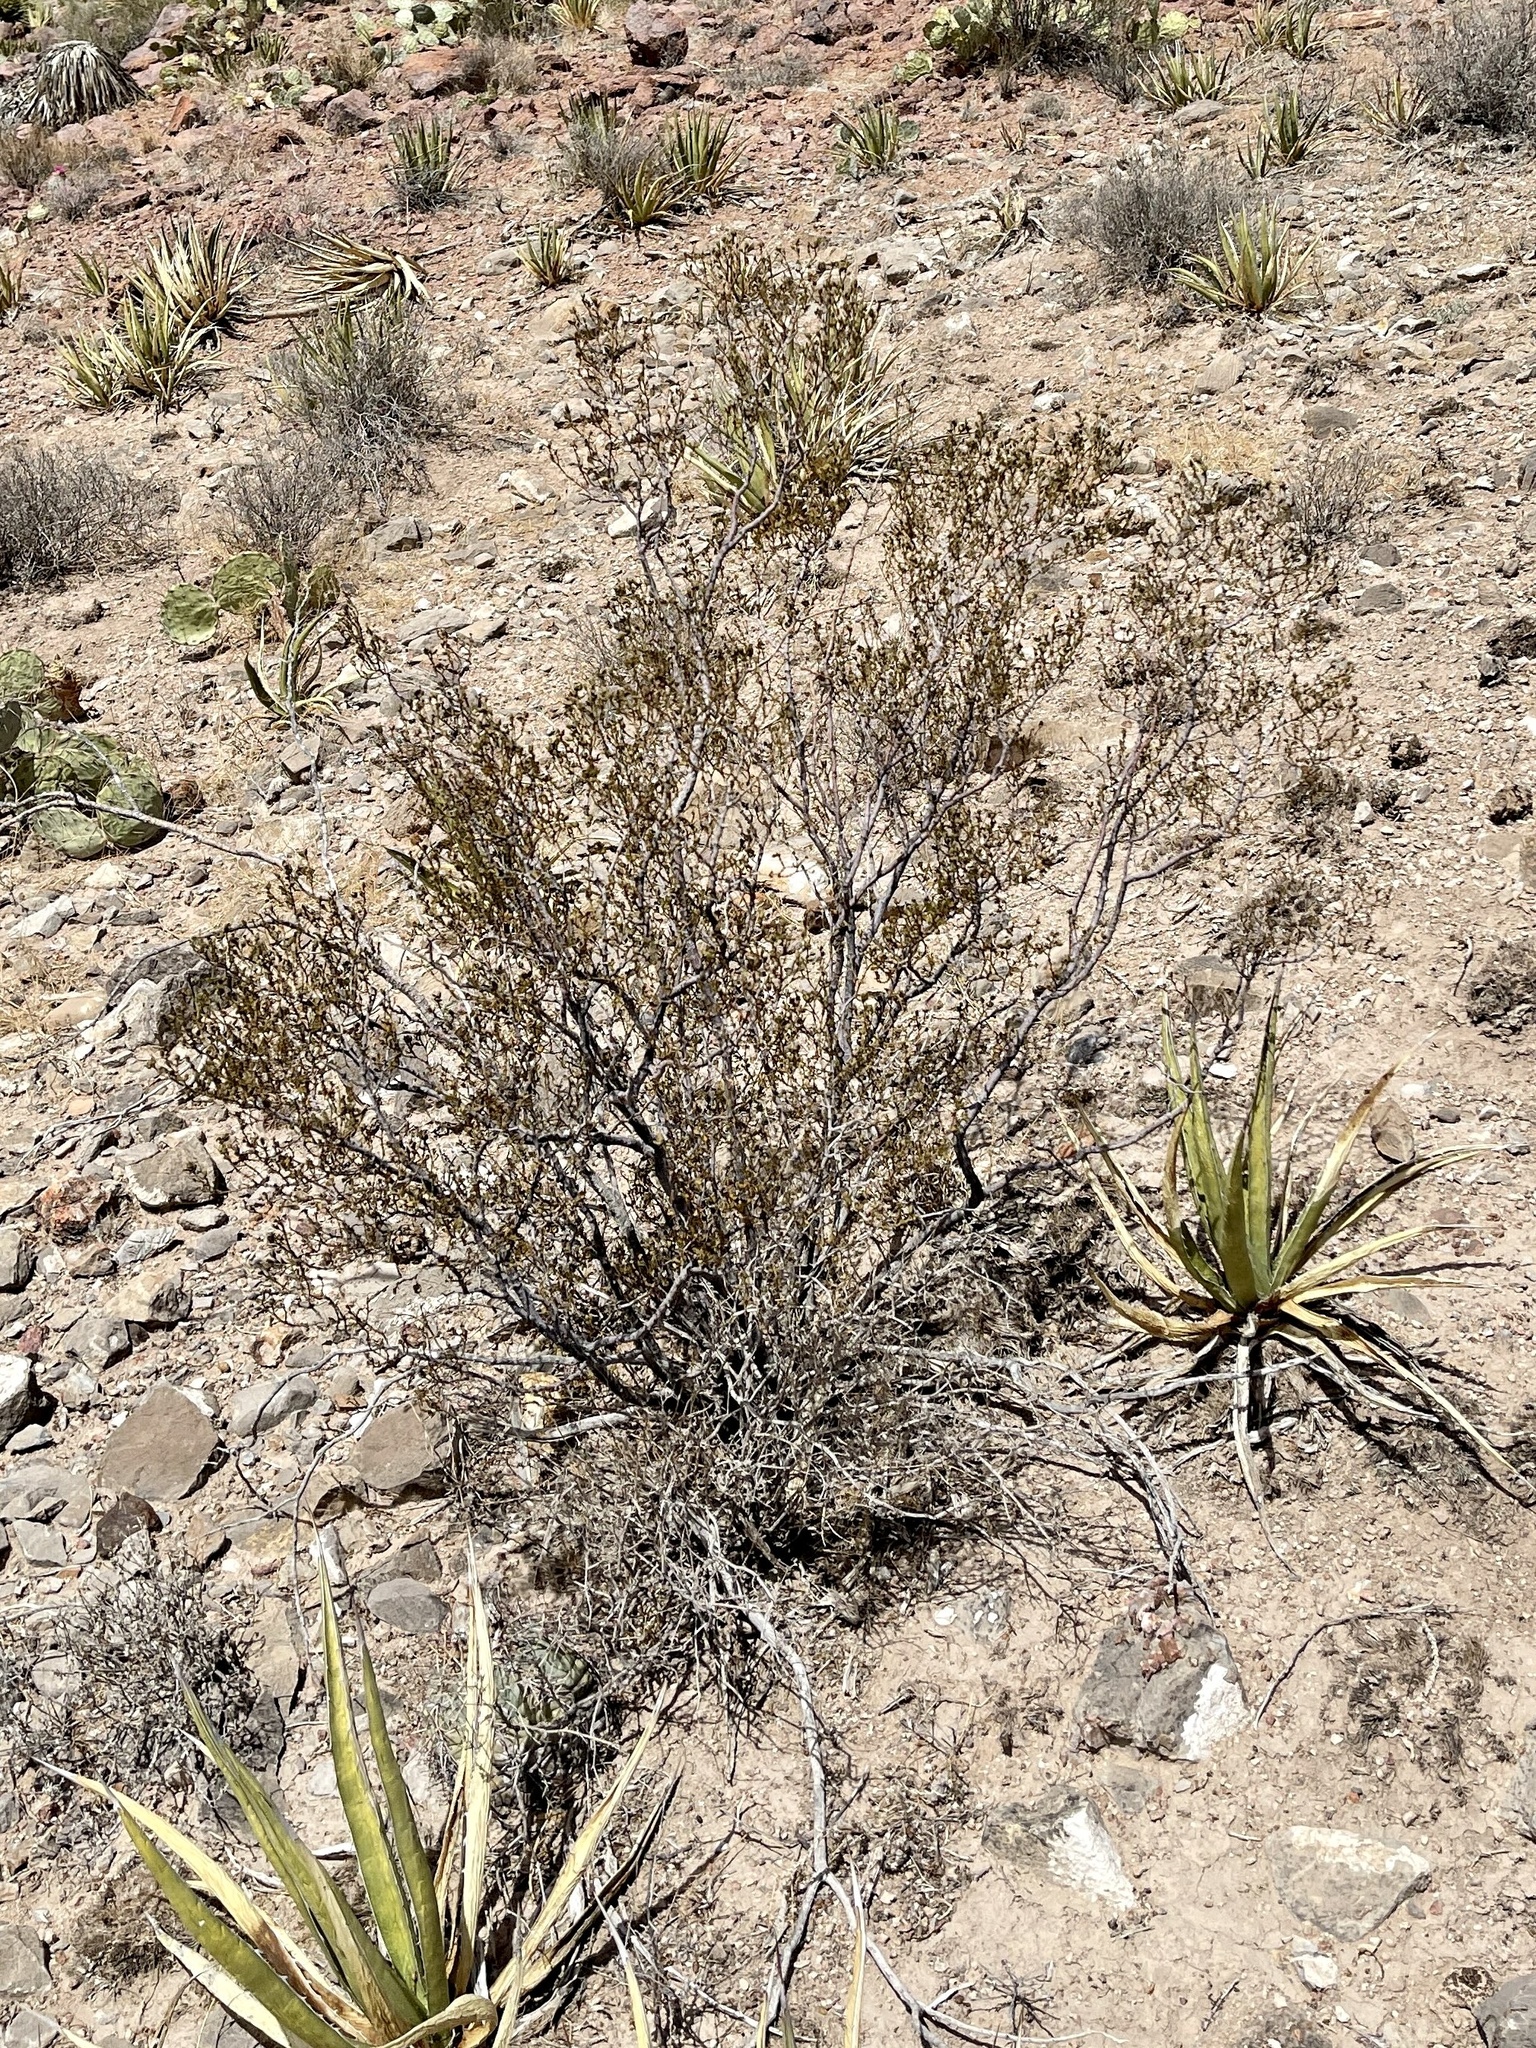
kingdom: Plantae
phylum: Tracheophyta
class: Magnoliopsida
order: Zygophyllales
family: Zygophyllaceae
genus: Larrea
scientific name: Larrea tridentata
